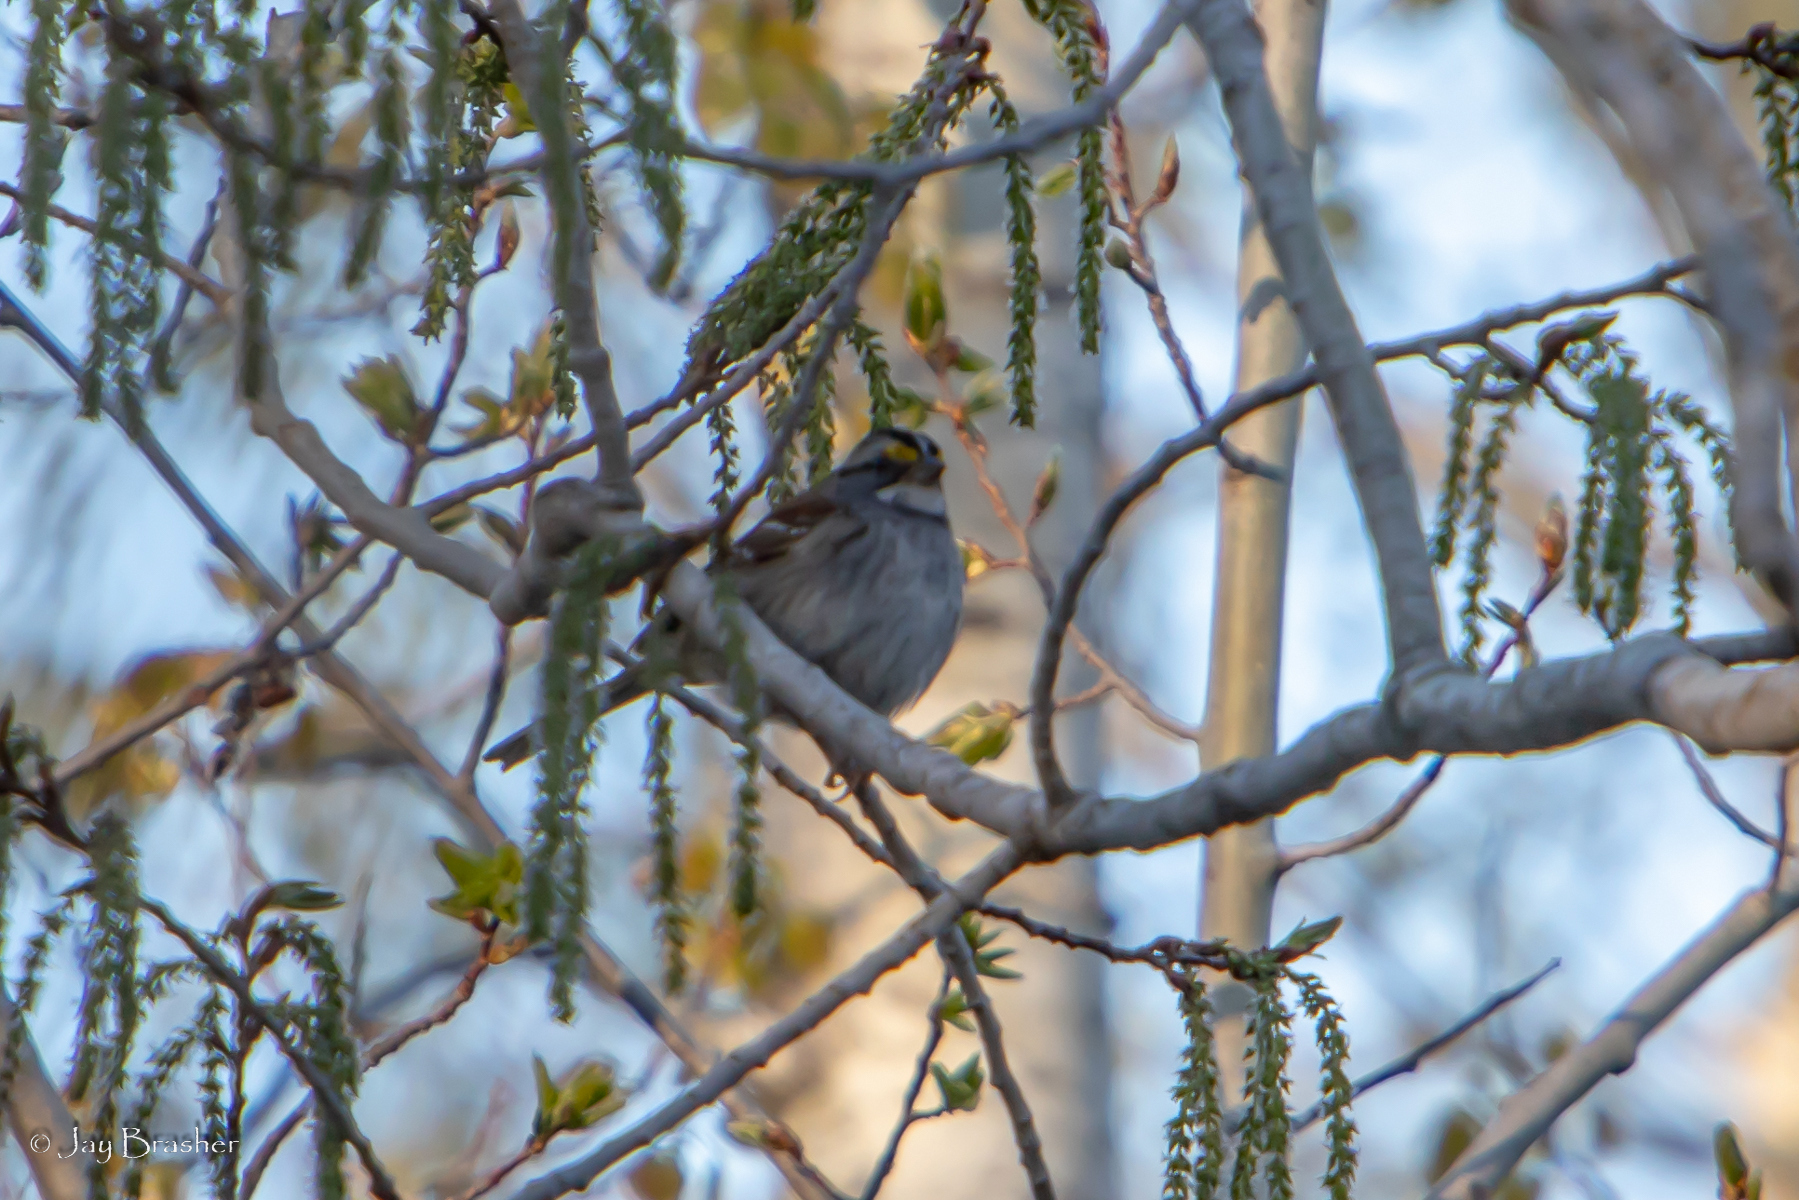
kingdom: Animalia
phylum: Chordata
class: Aves
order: Passeriformes
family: Passerellidae
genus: Zonotrichia
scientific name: Zonotrichia albicollis
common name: White-throated sparrow
